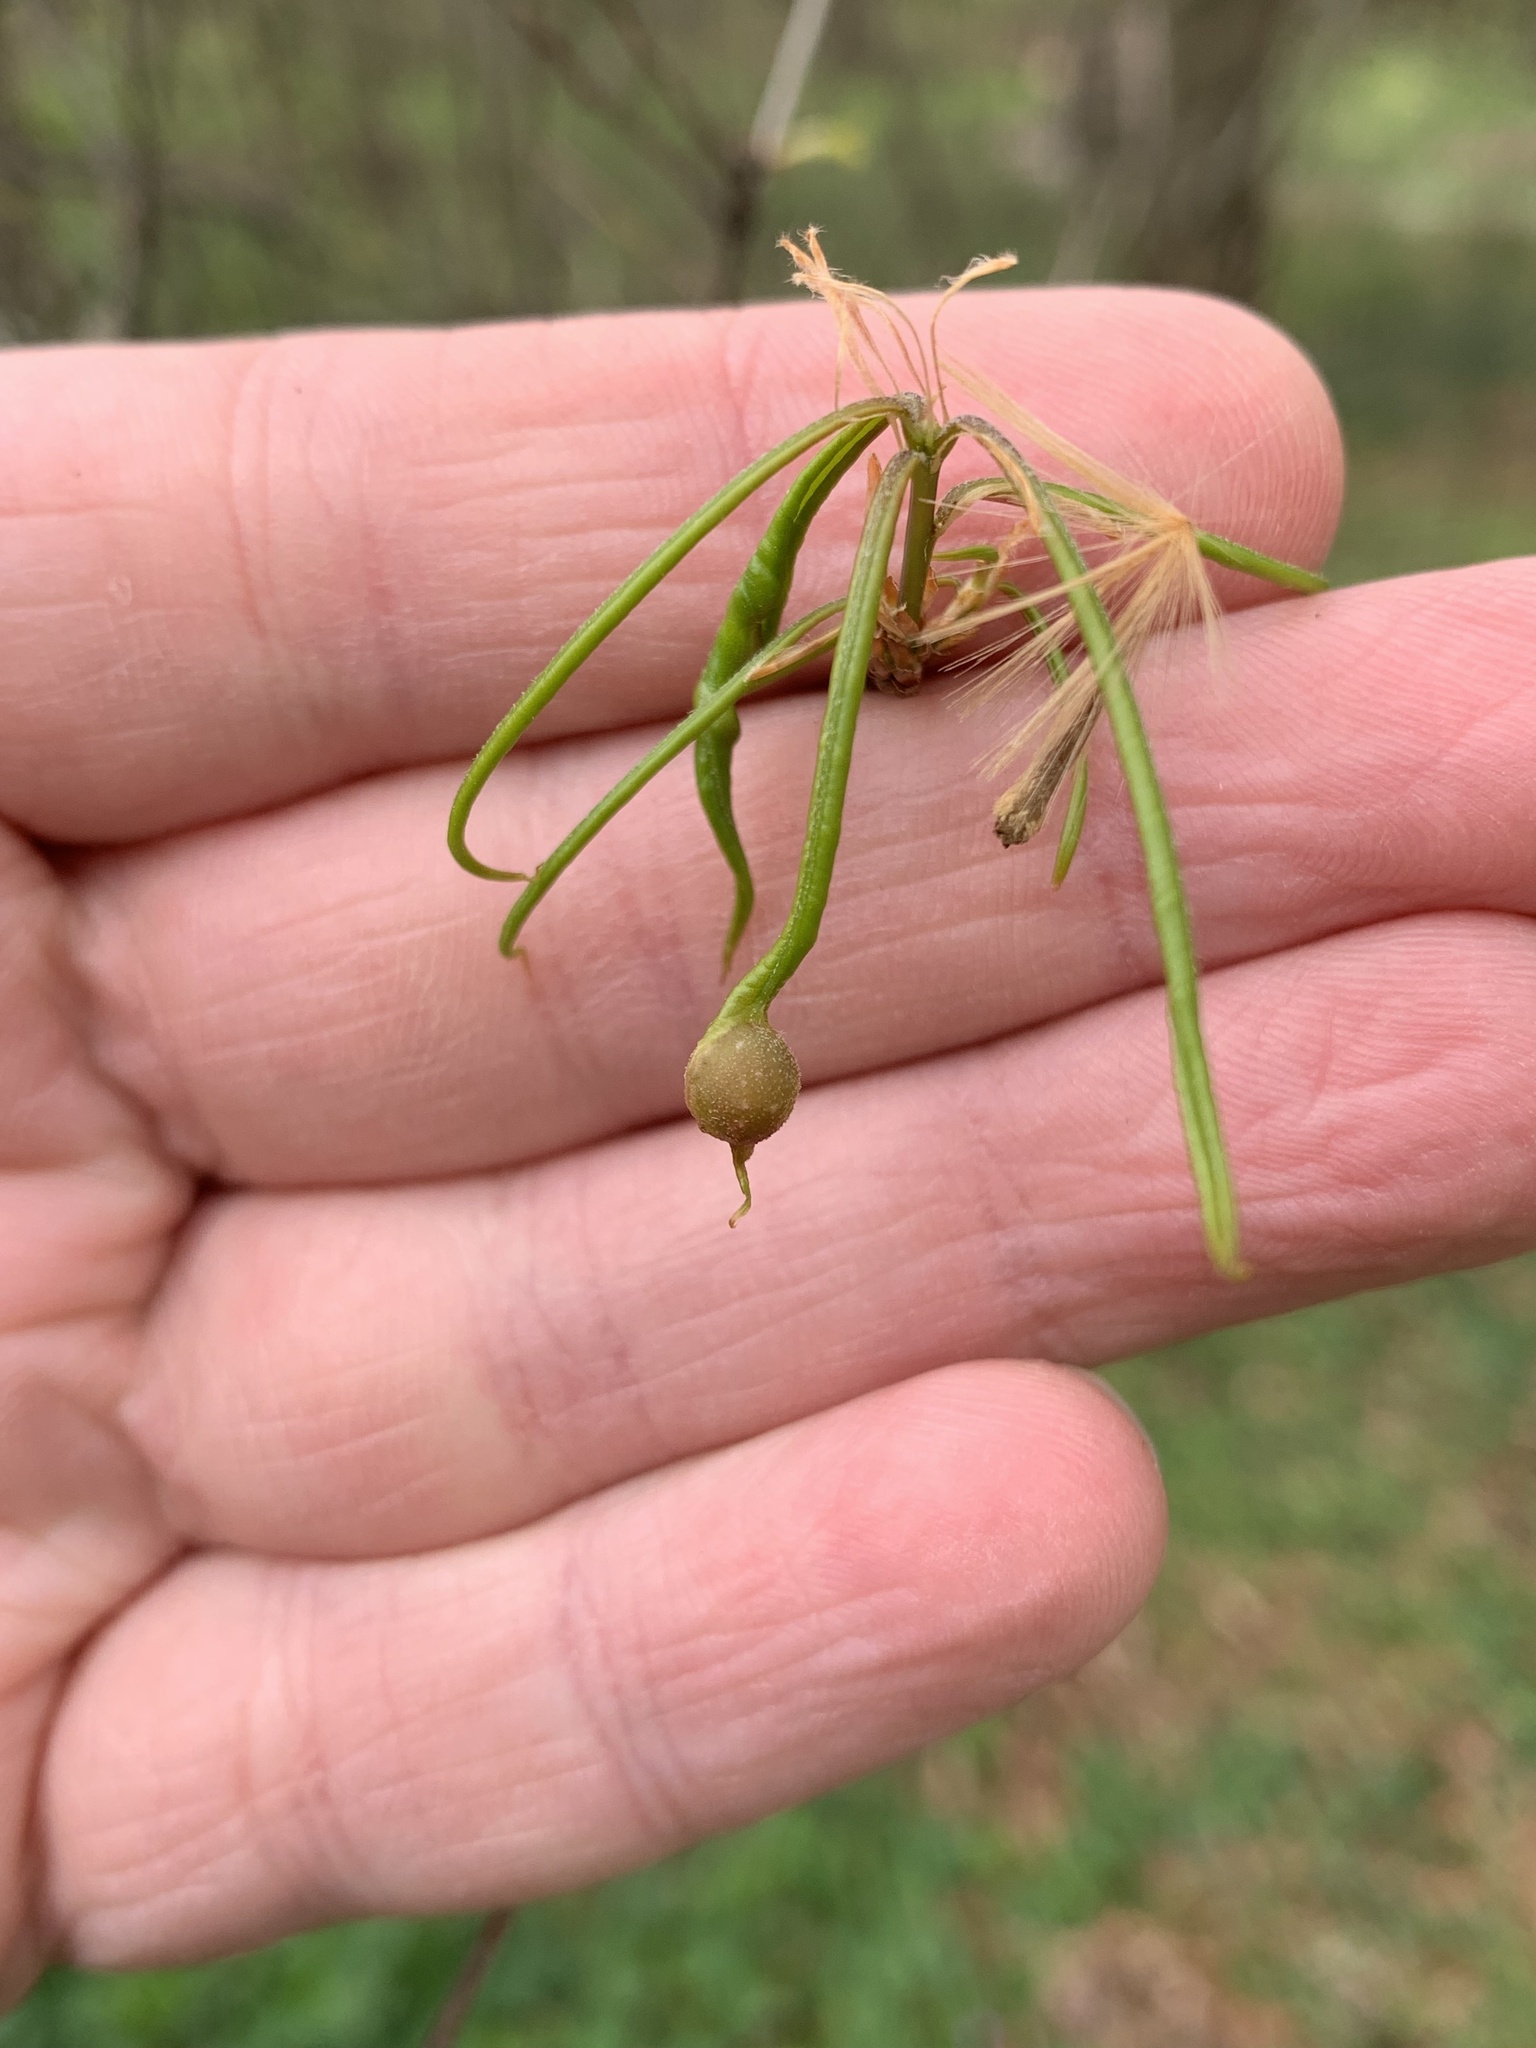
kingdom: Animalia
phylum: Arthropoda
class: Insecta
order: Hymenoptera
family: Cynipidae
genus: Dryocosmus
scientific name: Dryocosmus
